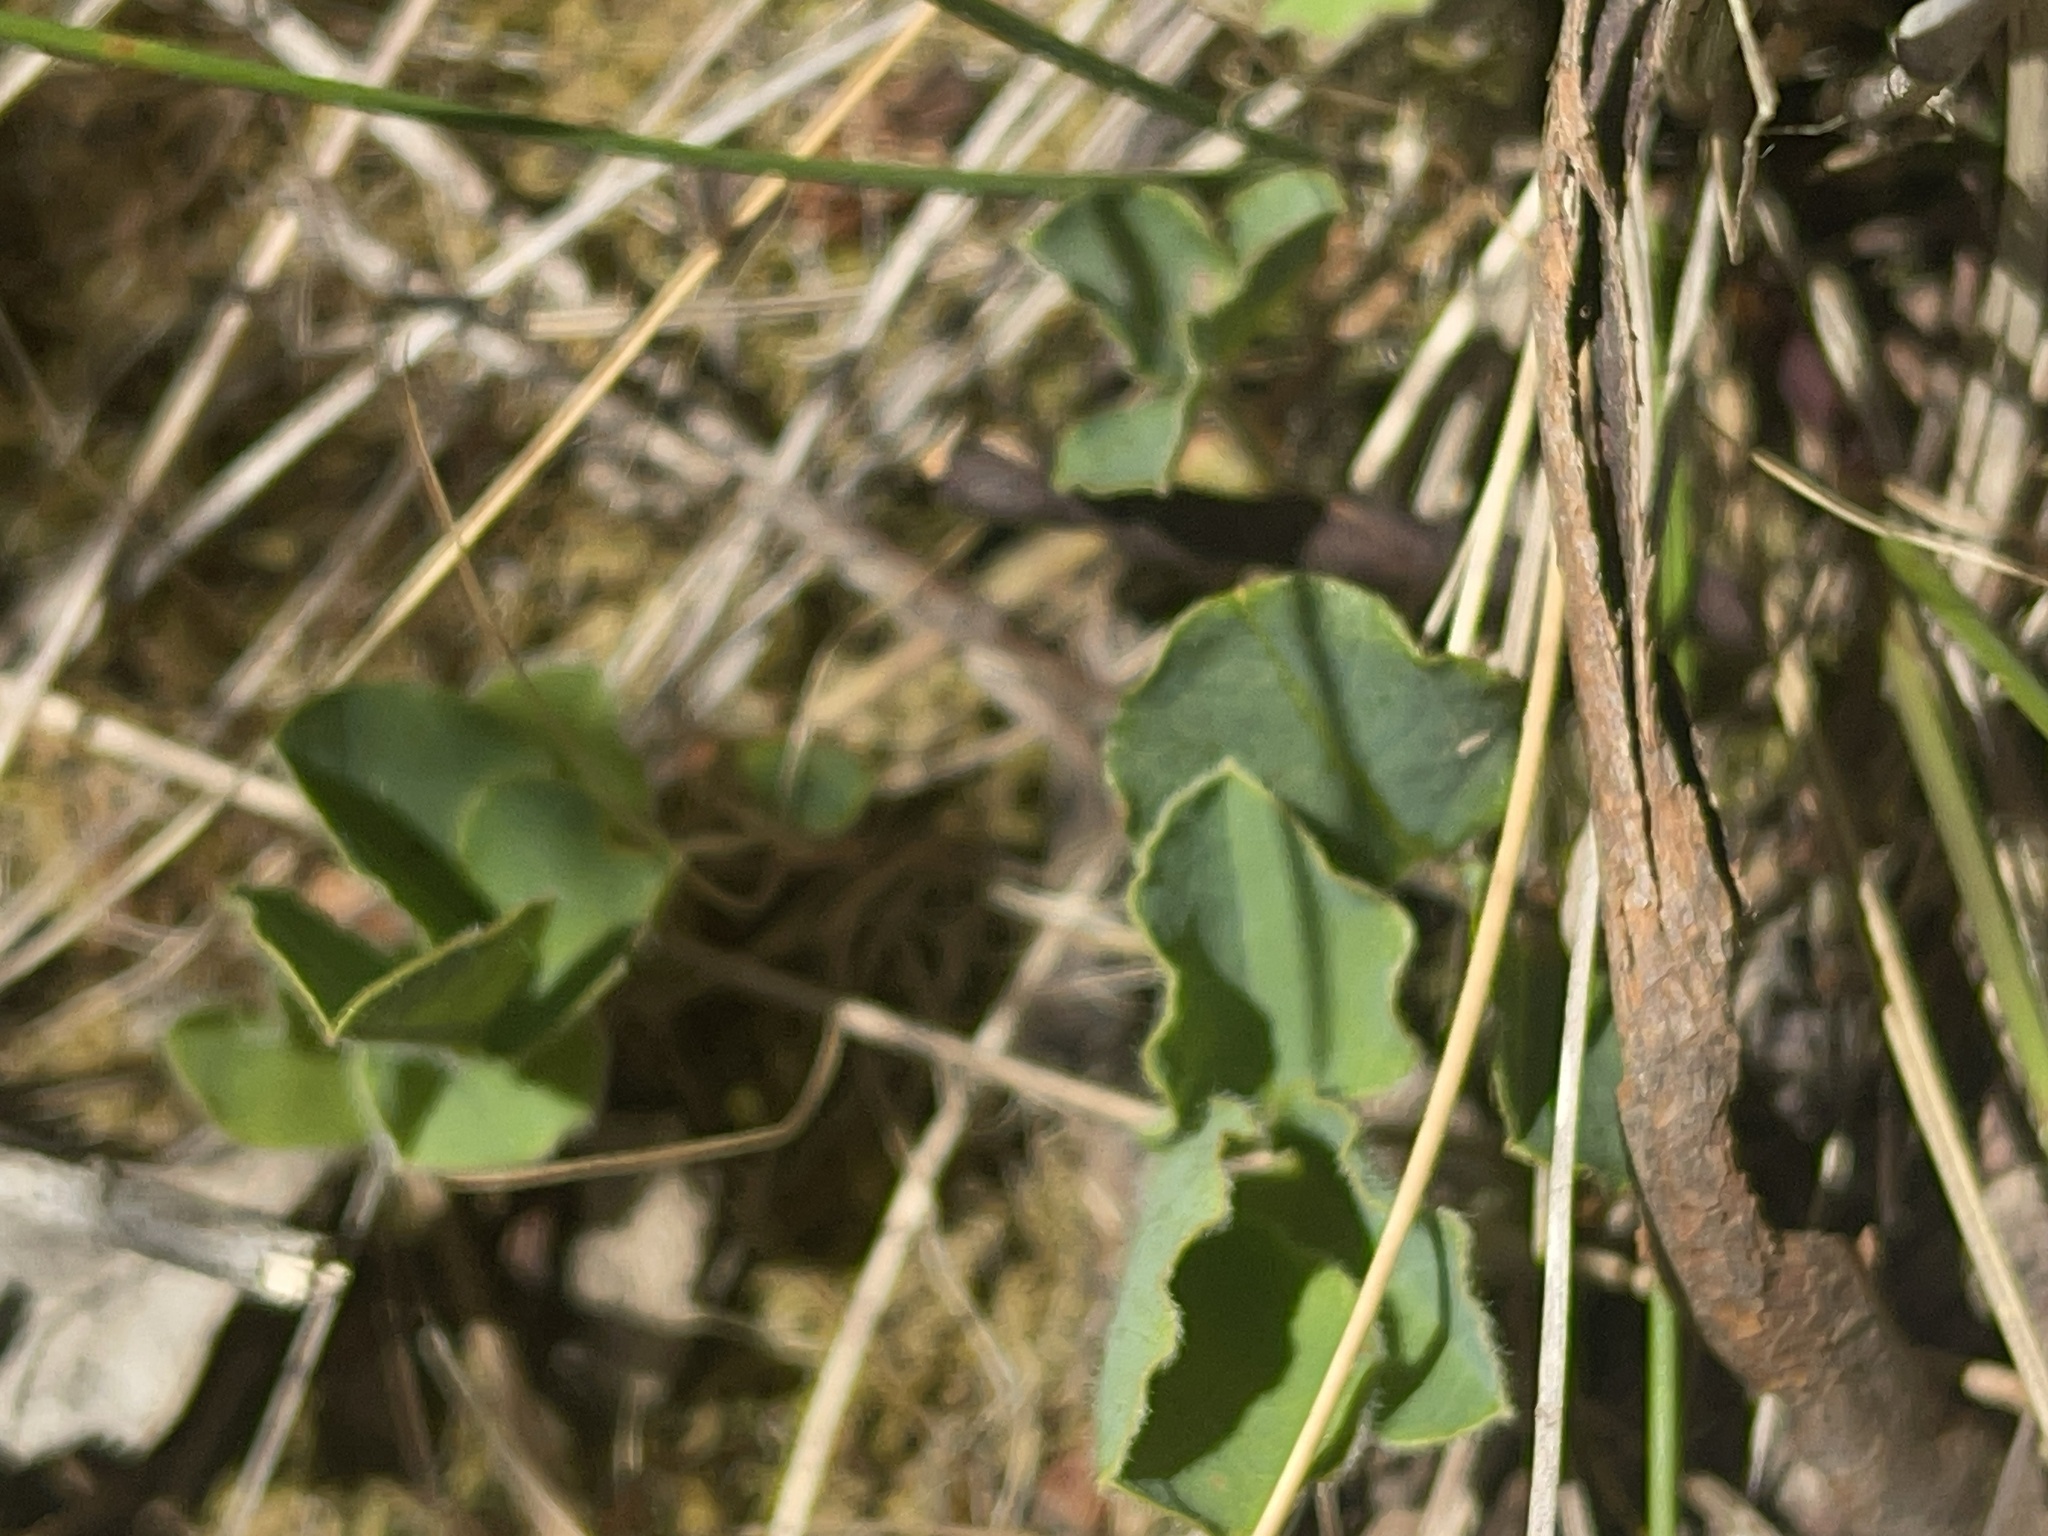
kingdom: Plantae
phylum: Tracheophyta
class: Magnoliopsida
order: Fabales
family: Fabaceae
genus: Kennedia
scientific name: Kennedia prostrata
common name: Running-postman
